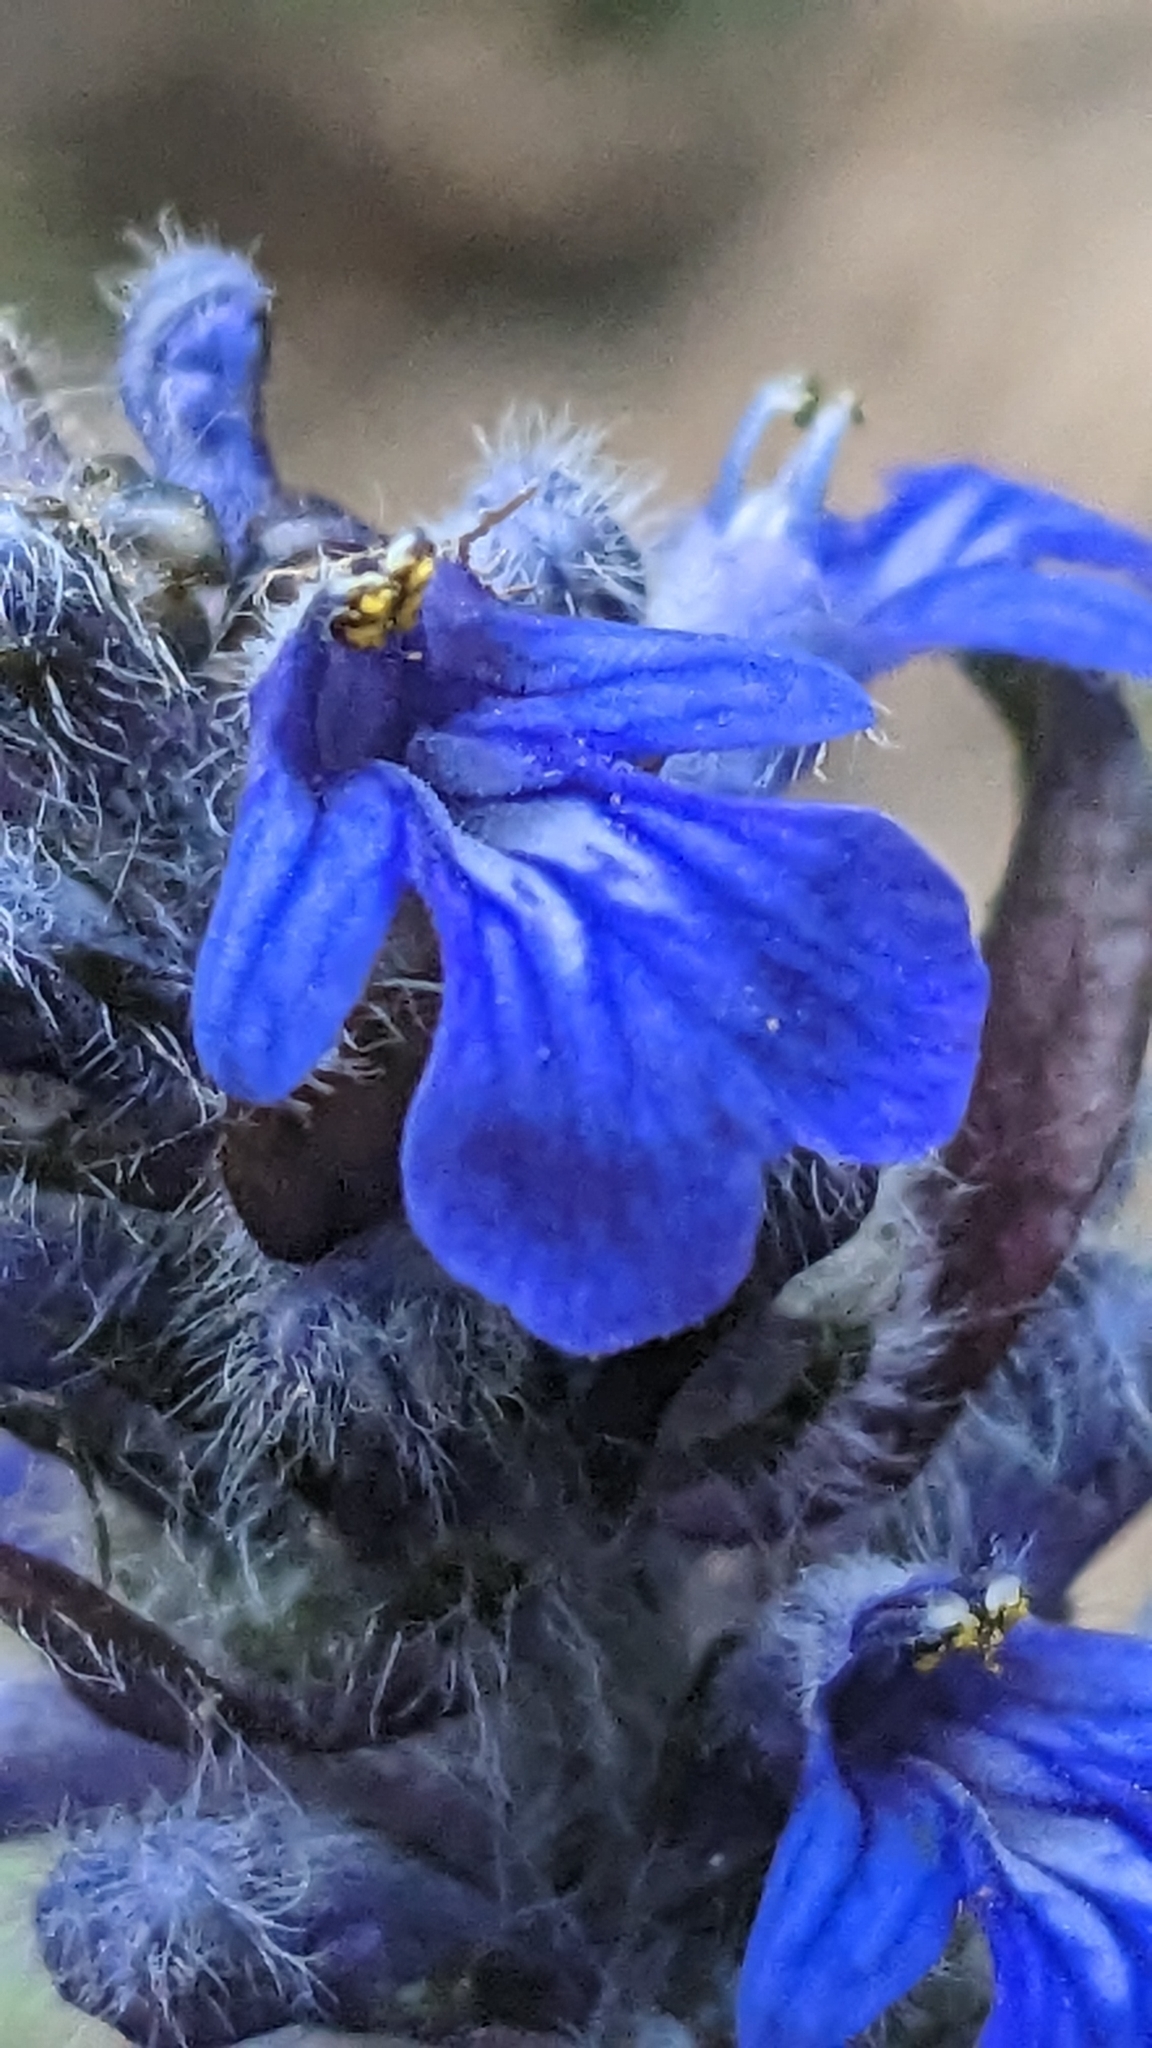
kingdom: Plantae
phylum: Tracheophyta
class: Magnoliopsida
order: Lamiales
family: Lamiaceae
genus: Ajuga
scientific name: Ajuga reptans
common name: Bugle
